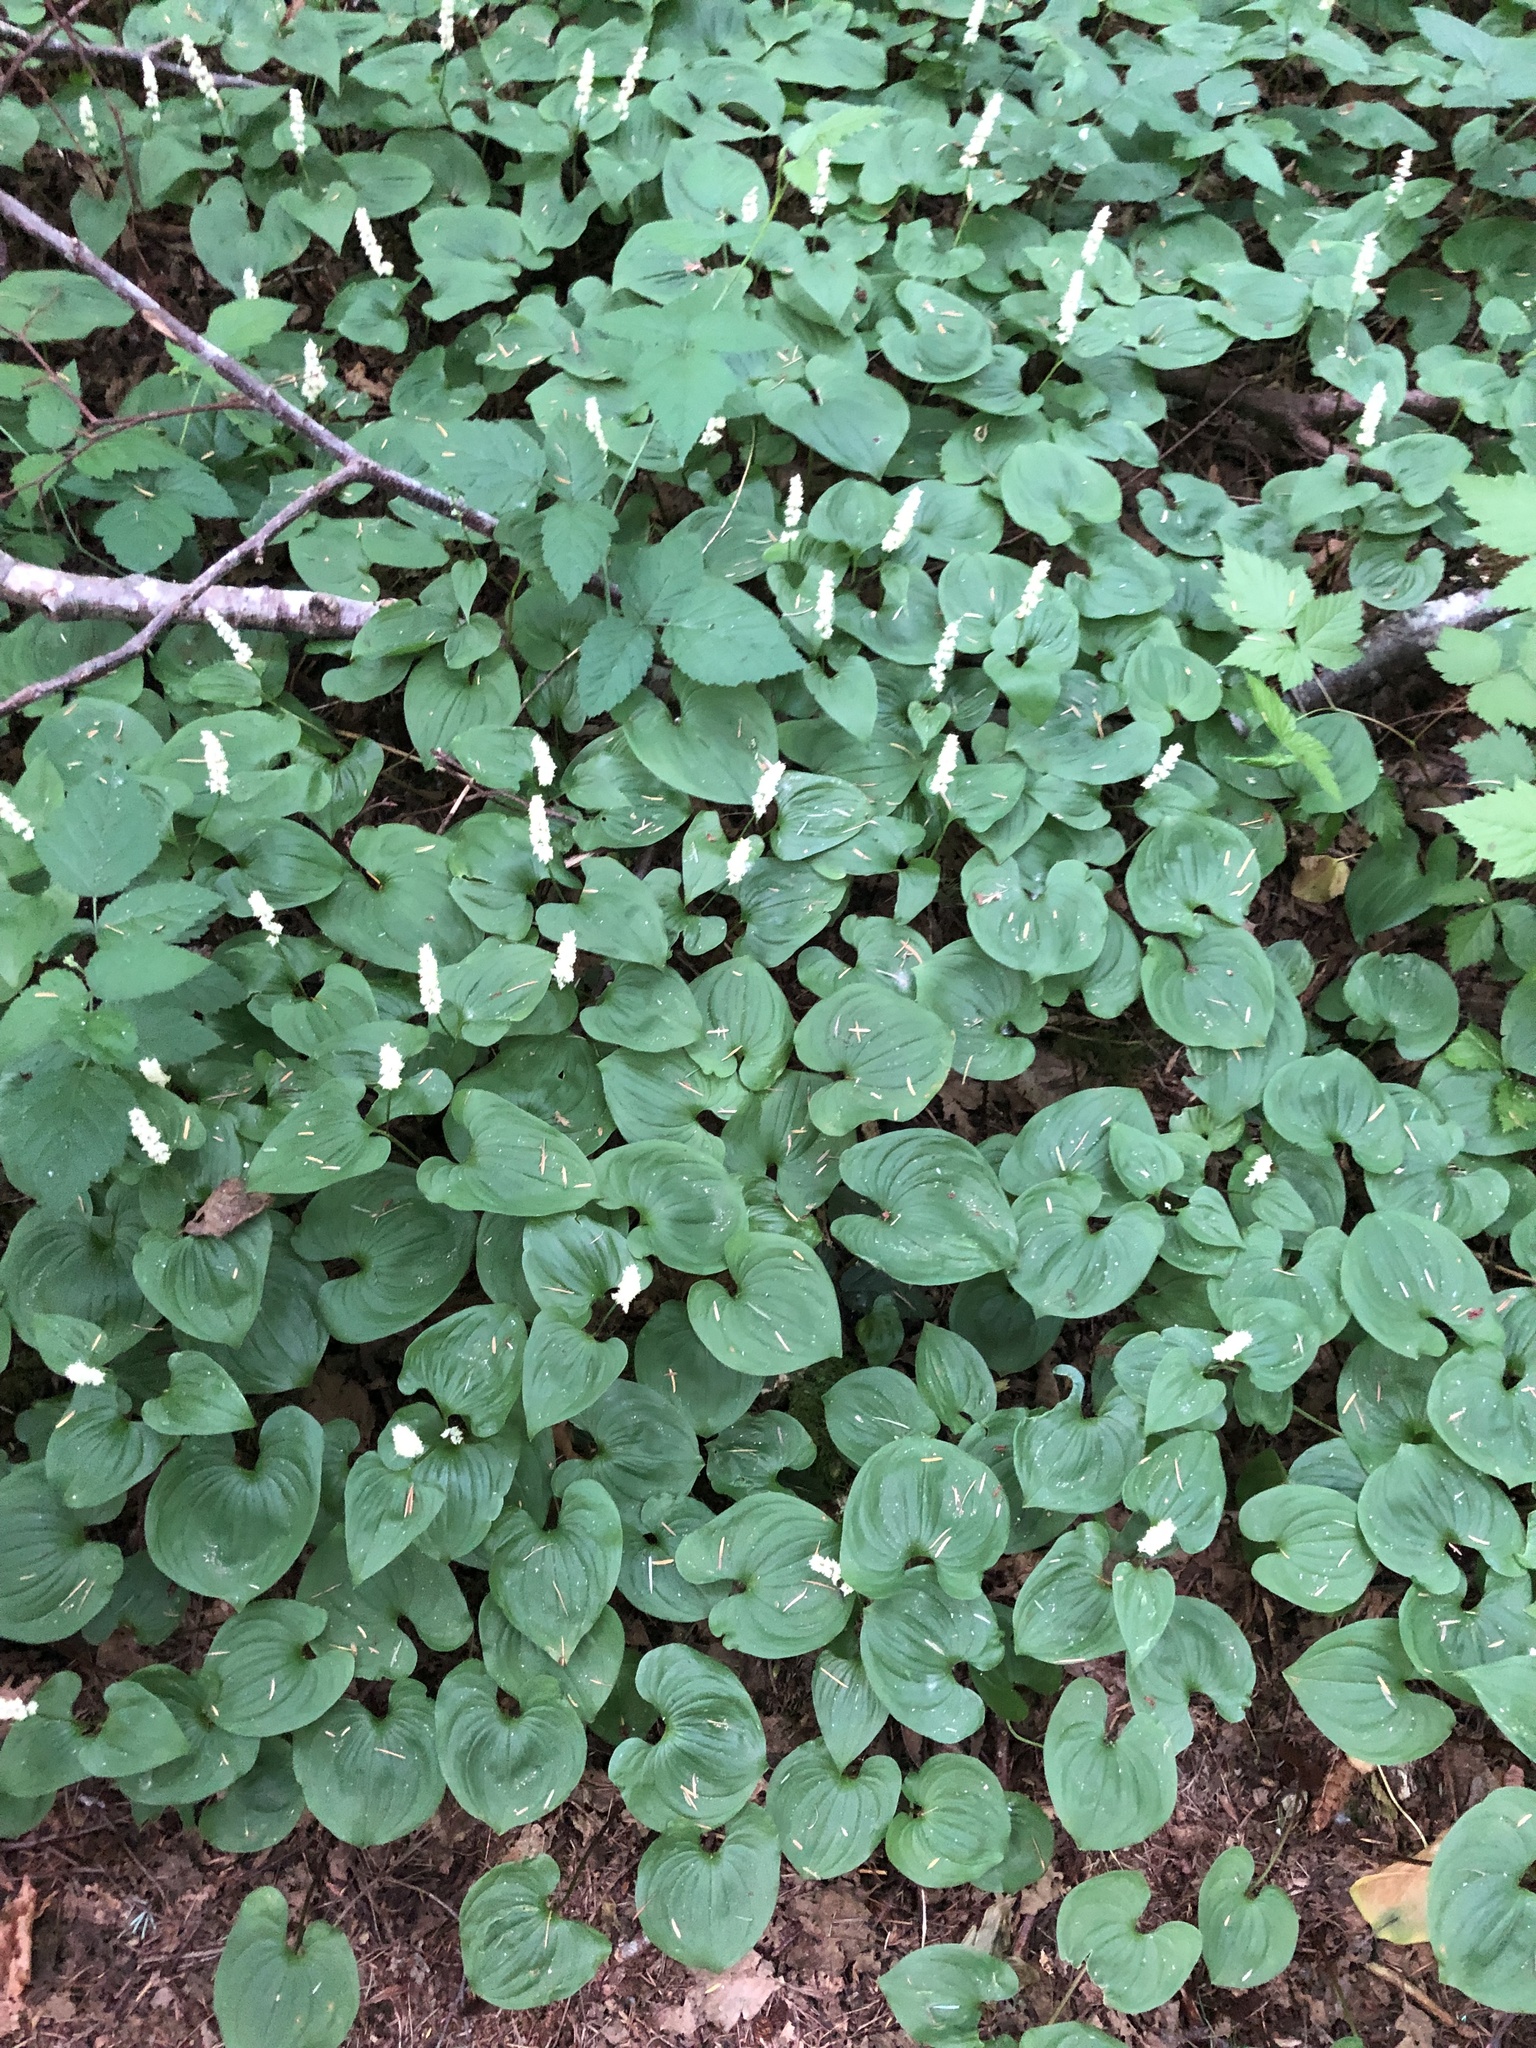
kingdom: Plantae
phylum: Tracheophyta
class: Liliopsida
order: Asparagales
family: Asparagaceae
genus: Maianthemum
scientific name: Maianthemum dilatatum
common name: False lily-of-the-valley
